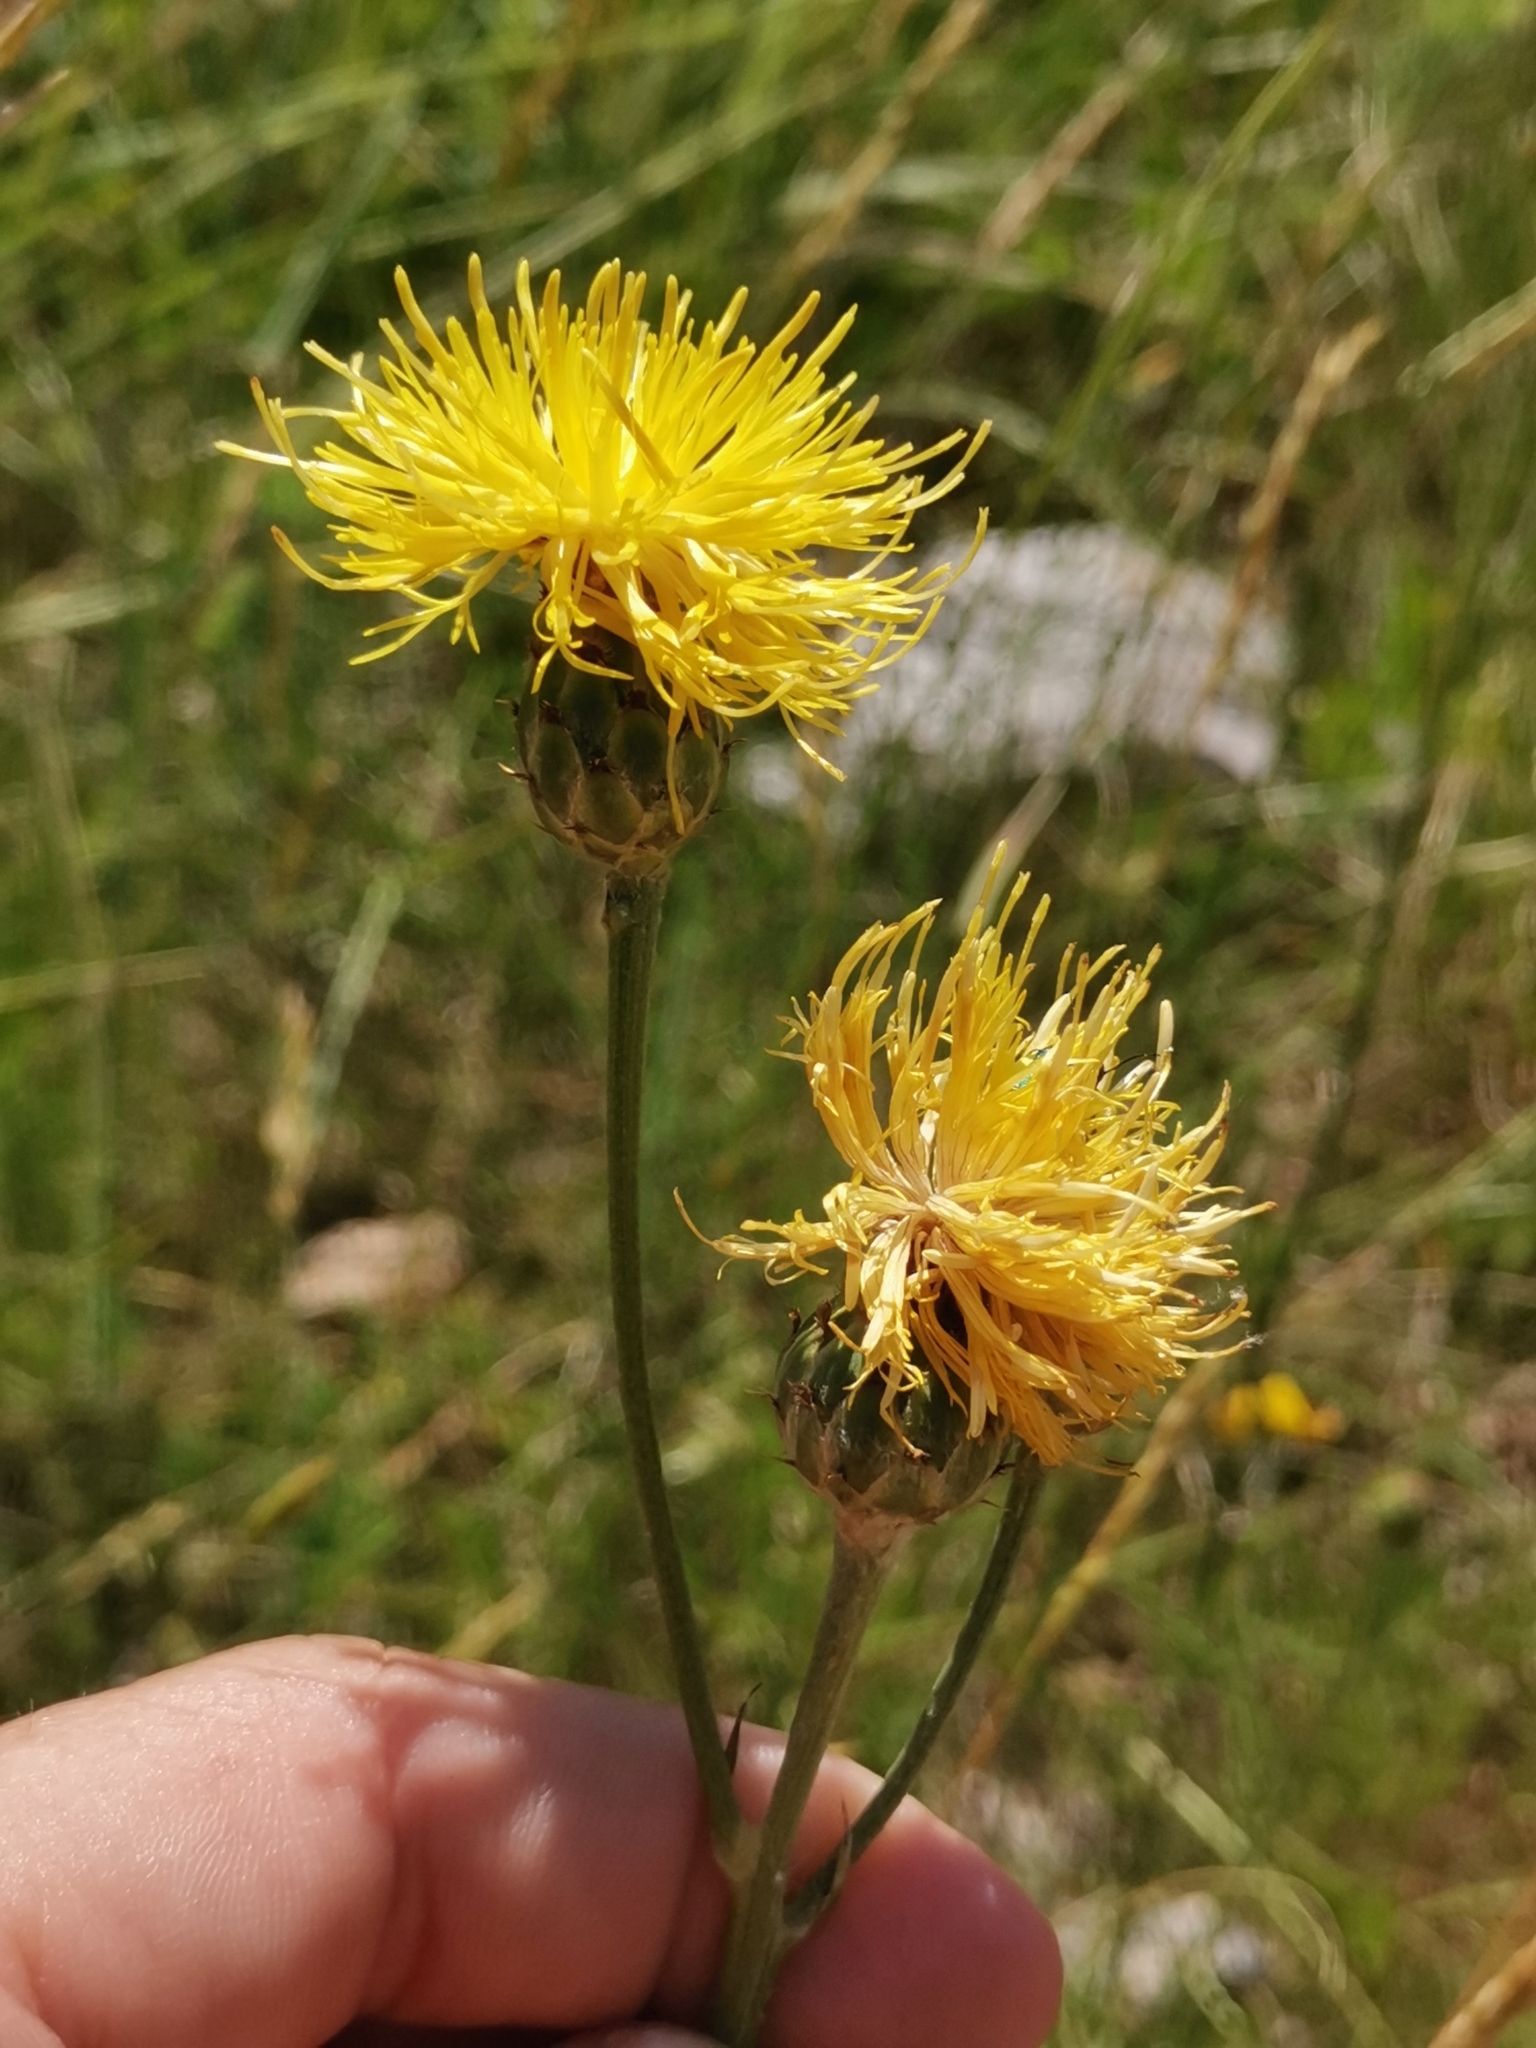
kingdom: Plantae
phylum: Tracheophyta
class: Magnoliopsida
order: Asterales
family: Asteraceae
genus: Centaurea
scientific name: Centaurea rupestris
